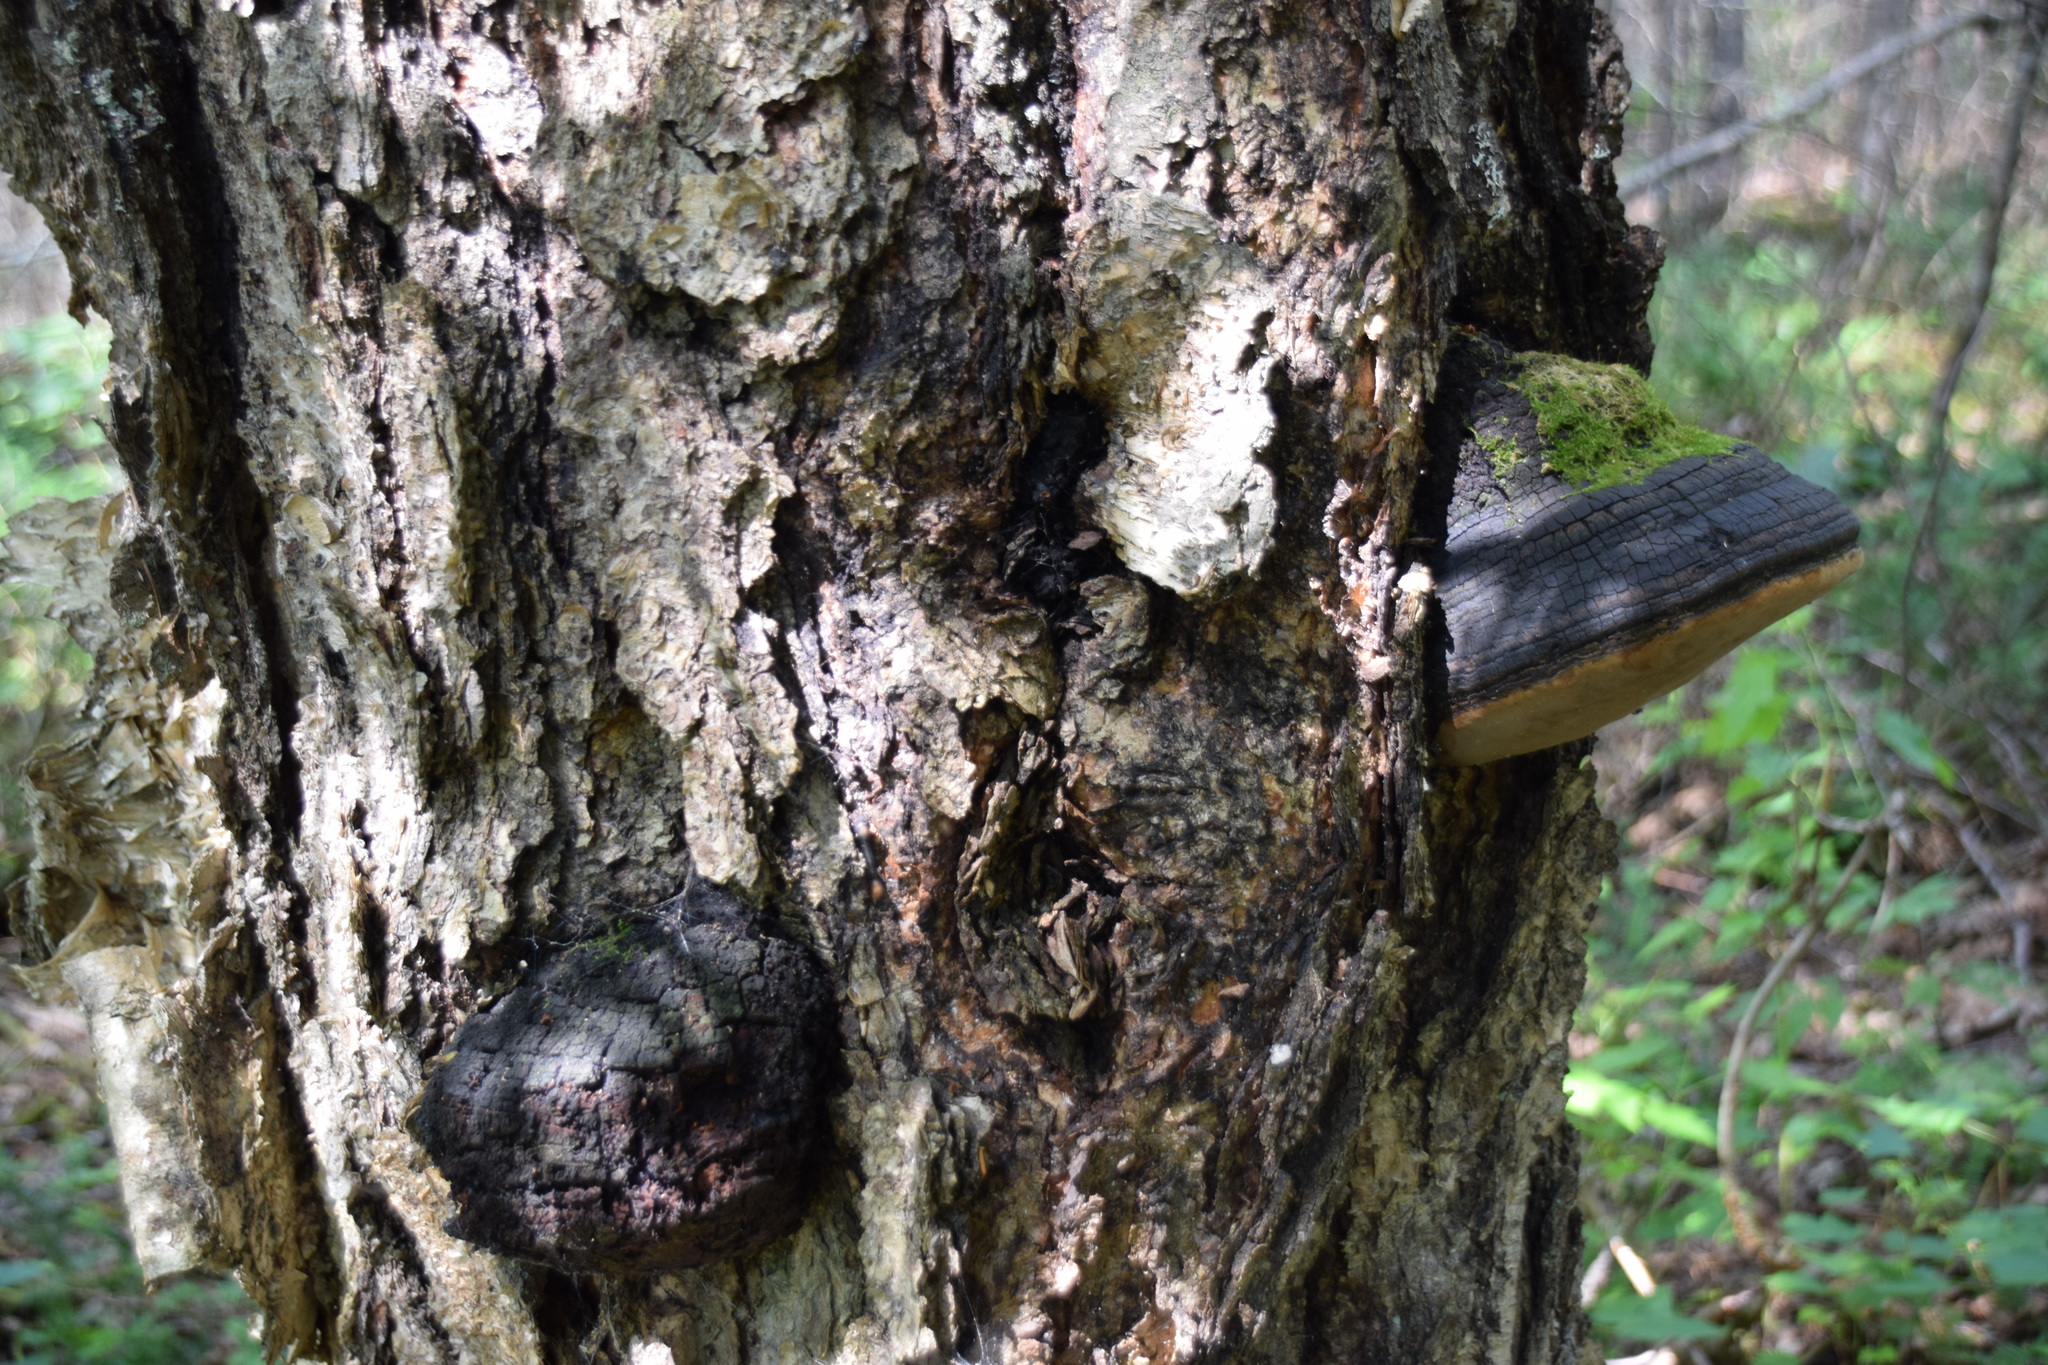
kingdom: Plantae
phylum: Tracheophyta
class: Magnoliopsida
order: Fagales
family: Betulaceae
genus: Betula
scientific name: Betula alleghaniensis
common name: Yellow birch
